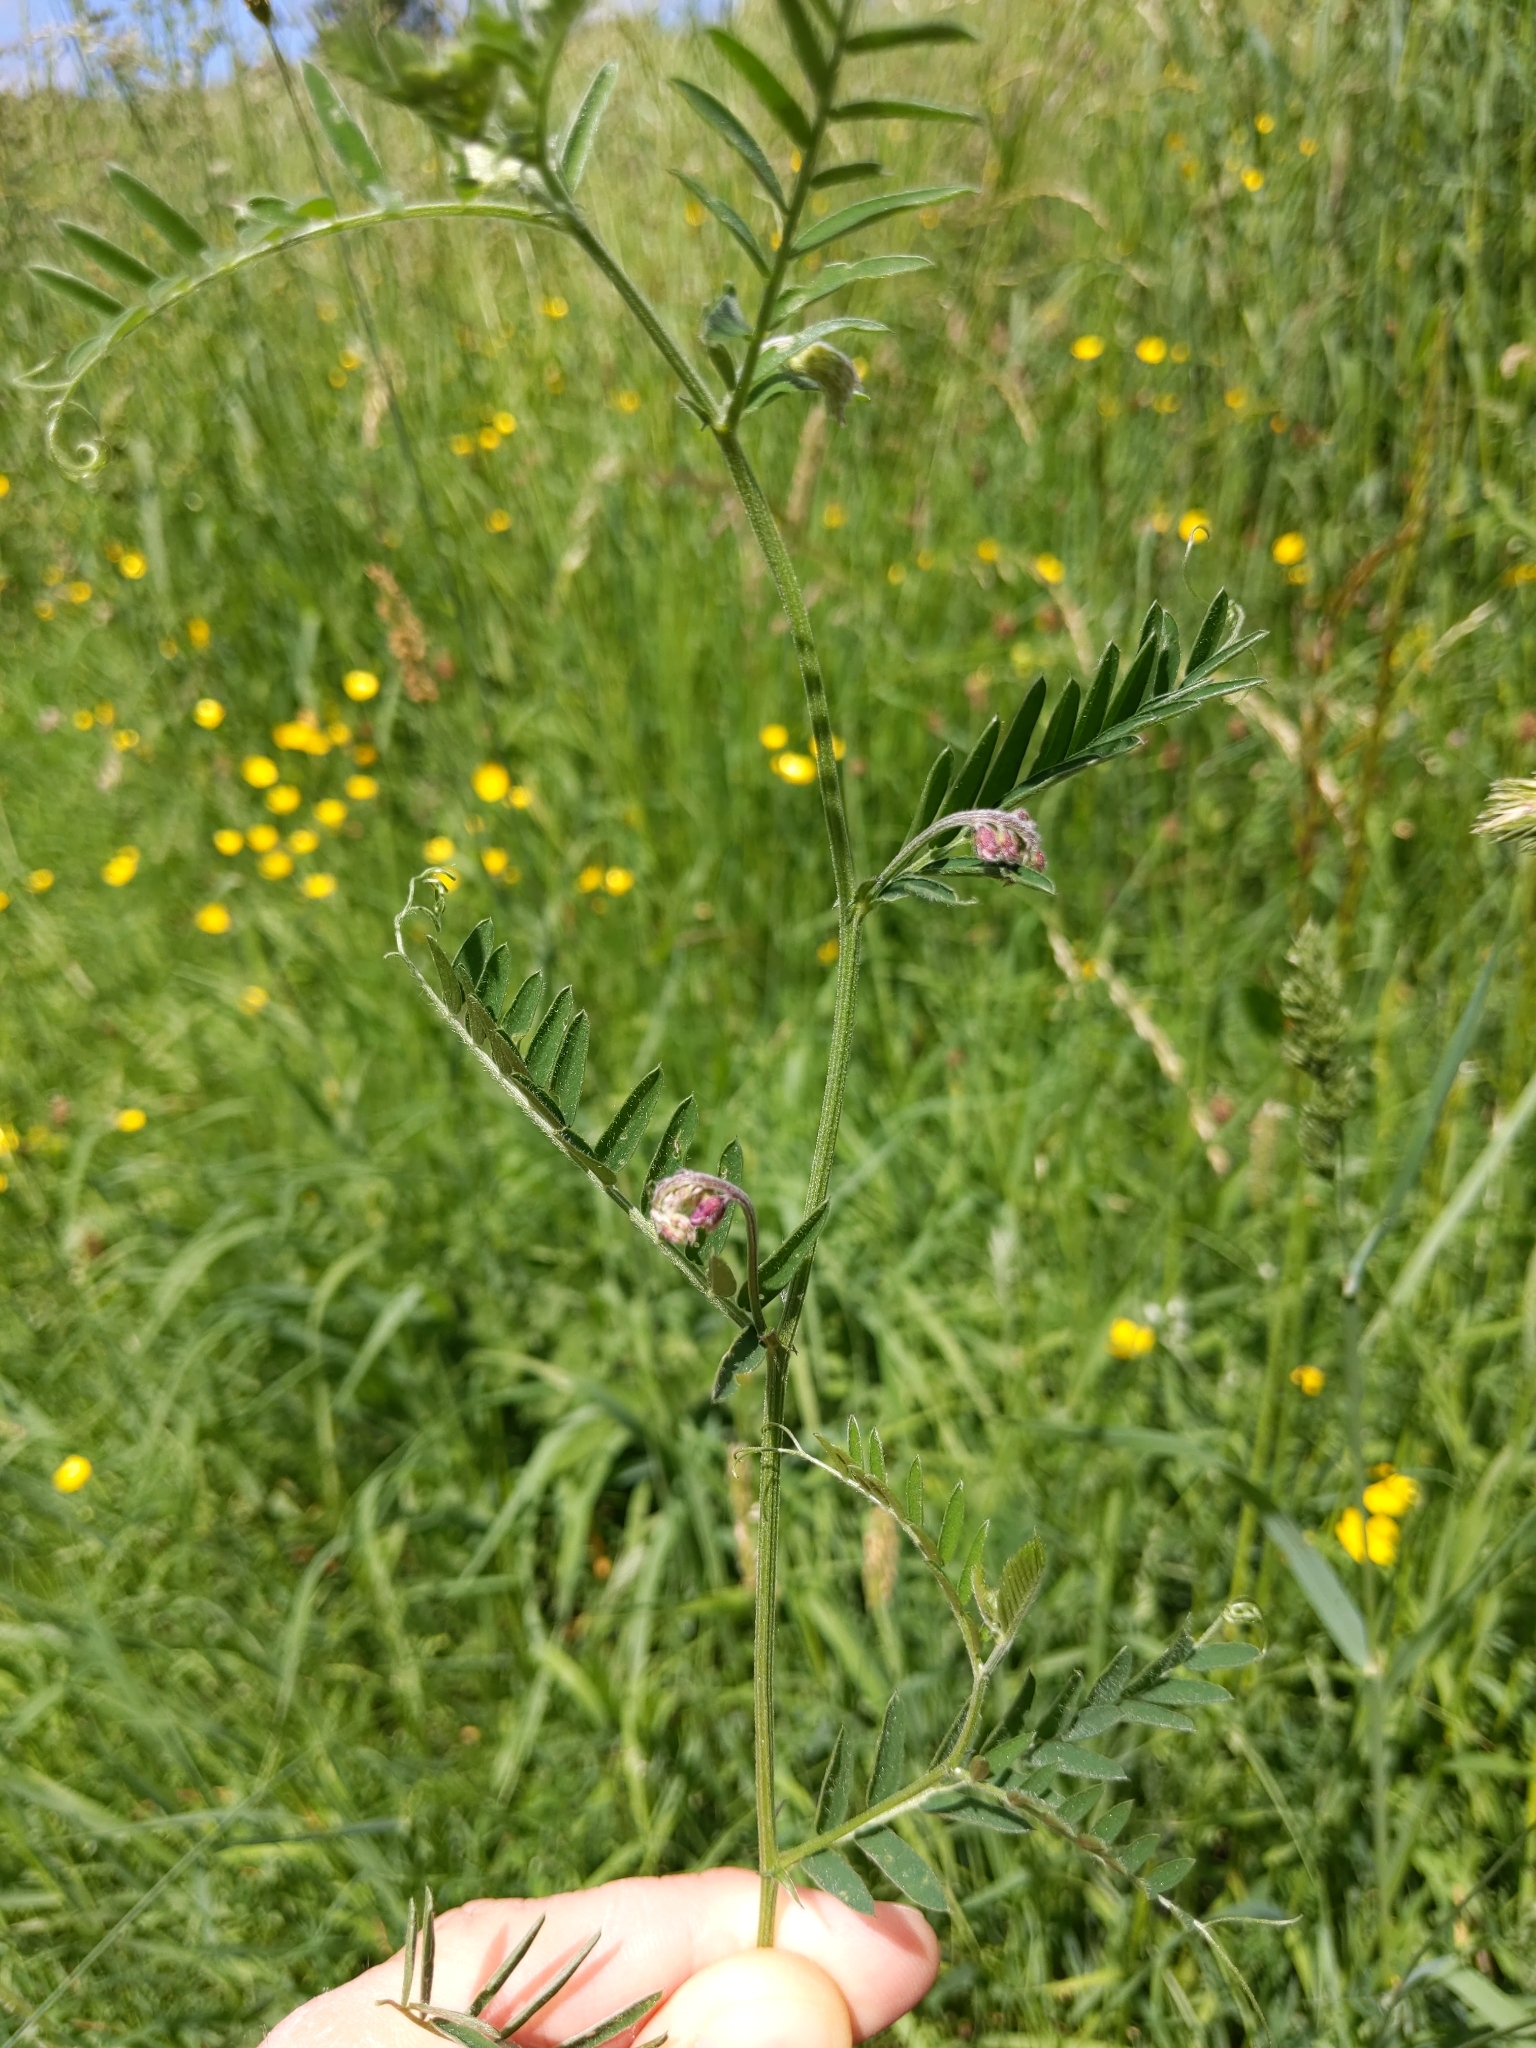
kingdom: Plantae
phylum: Tracheophyta
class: Magnoliopsida
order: Fabales
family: Fabaceae
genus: Vicia
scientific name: Vicia cracca
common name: Bird vetch
